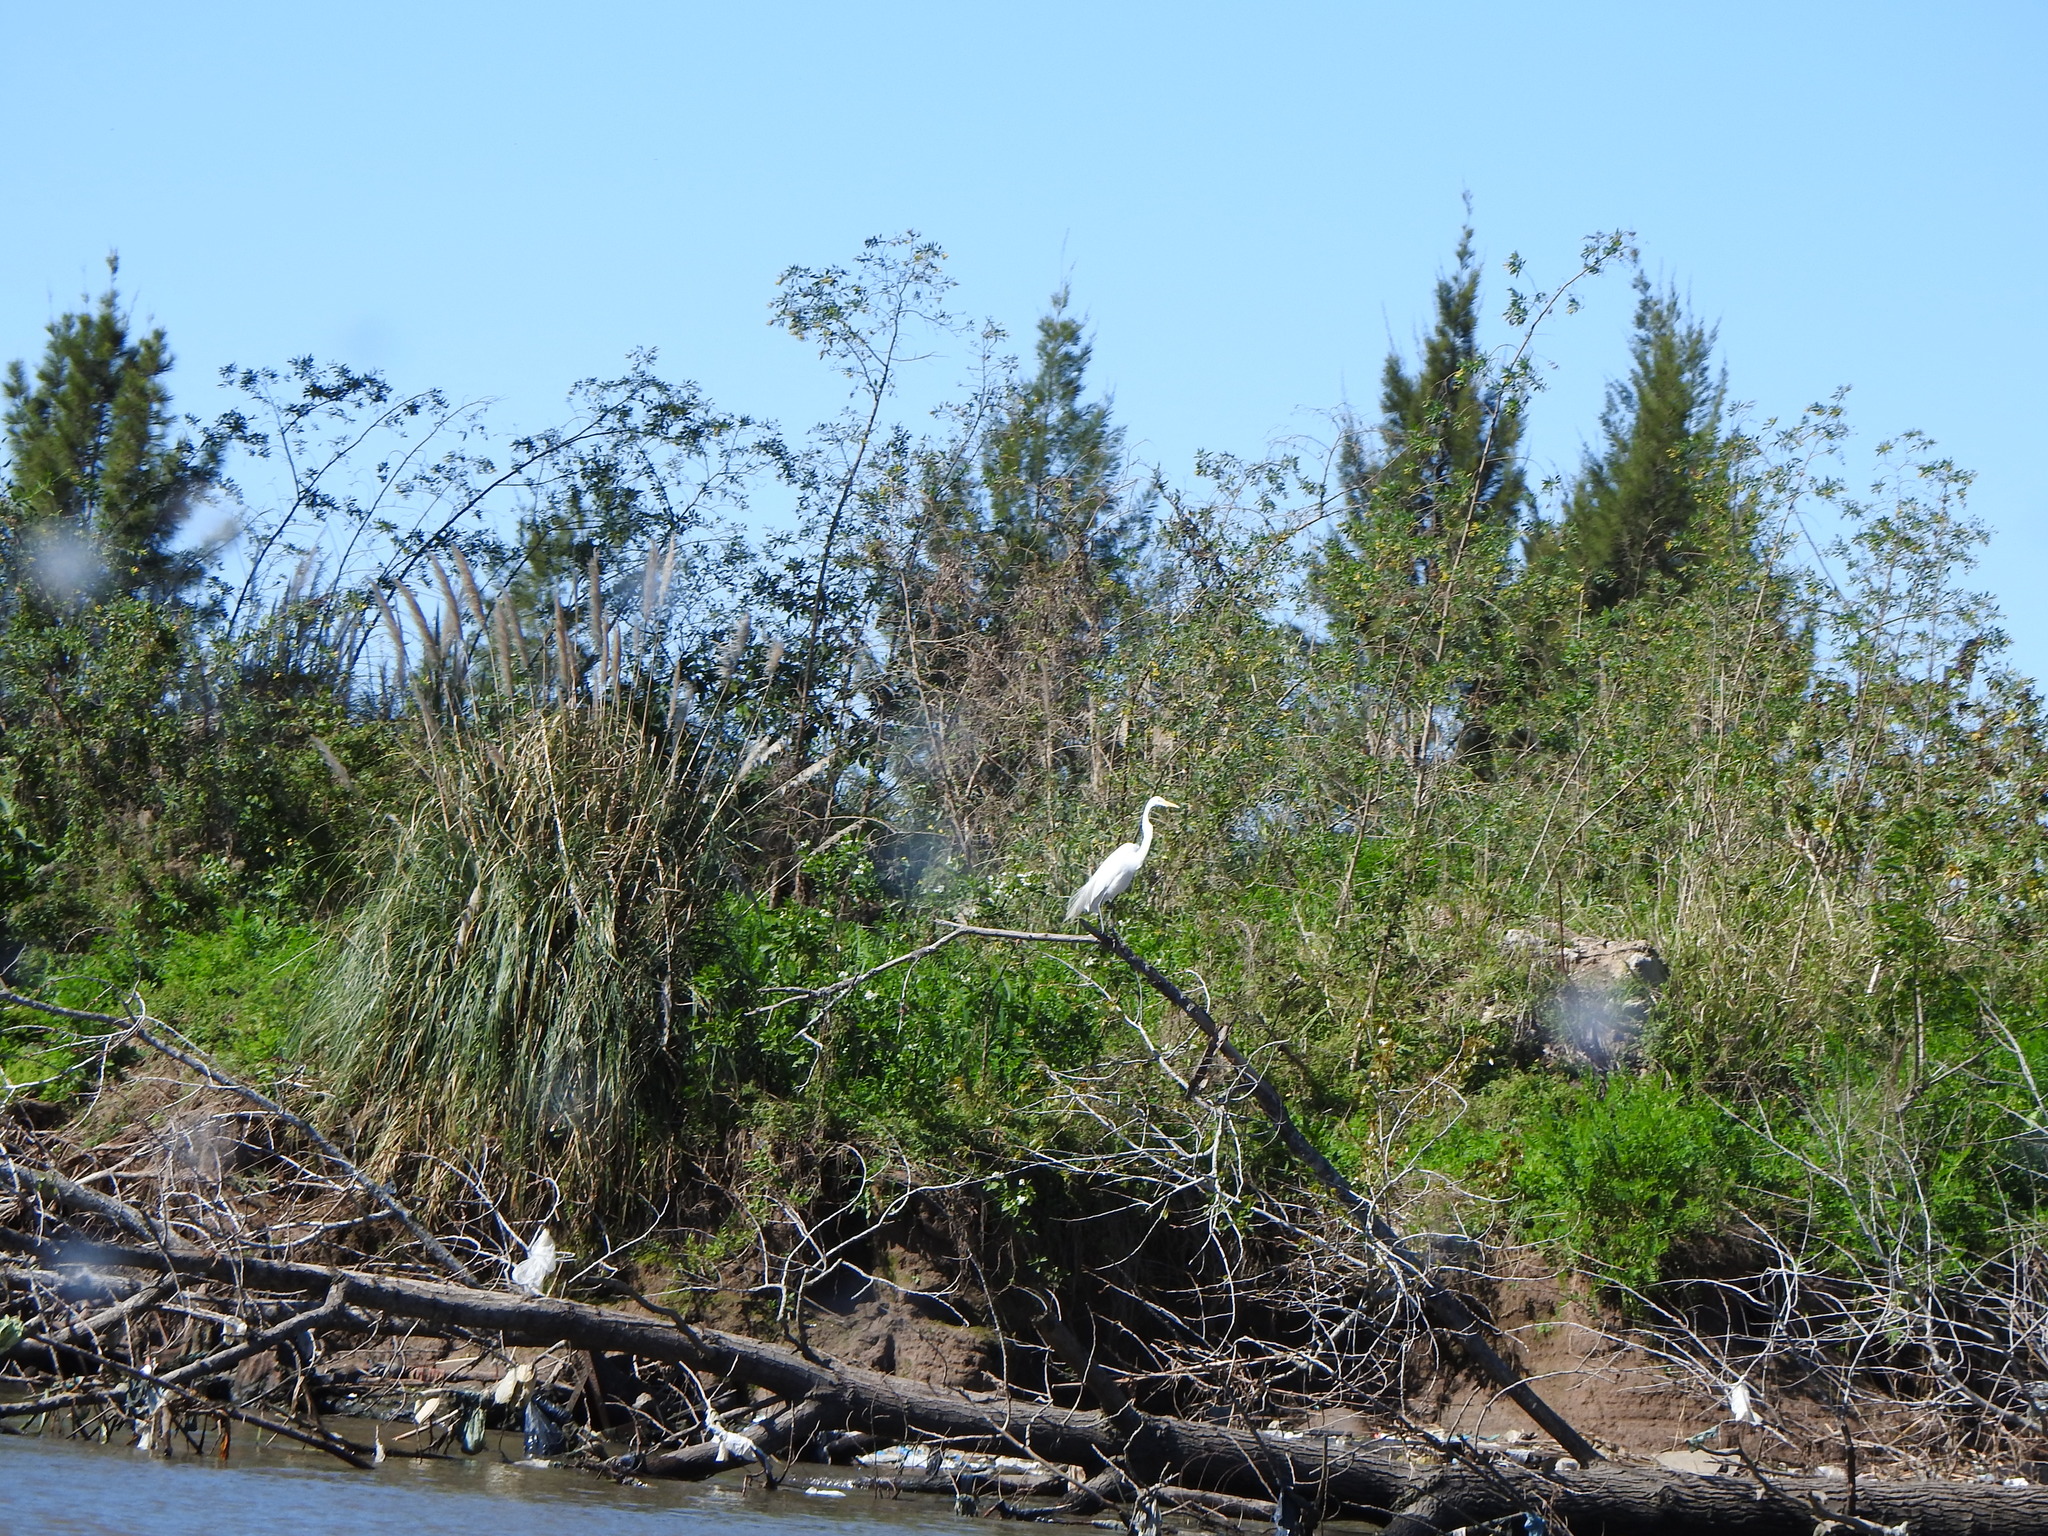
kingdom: Animalia
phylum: Chordata
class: Aves
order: Pelecaniformes
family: Ardeidae
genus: Ardea
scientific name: Ardea alba
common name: Great egret
